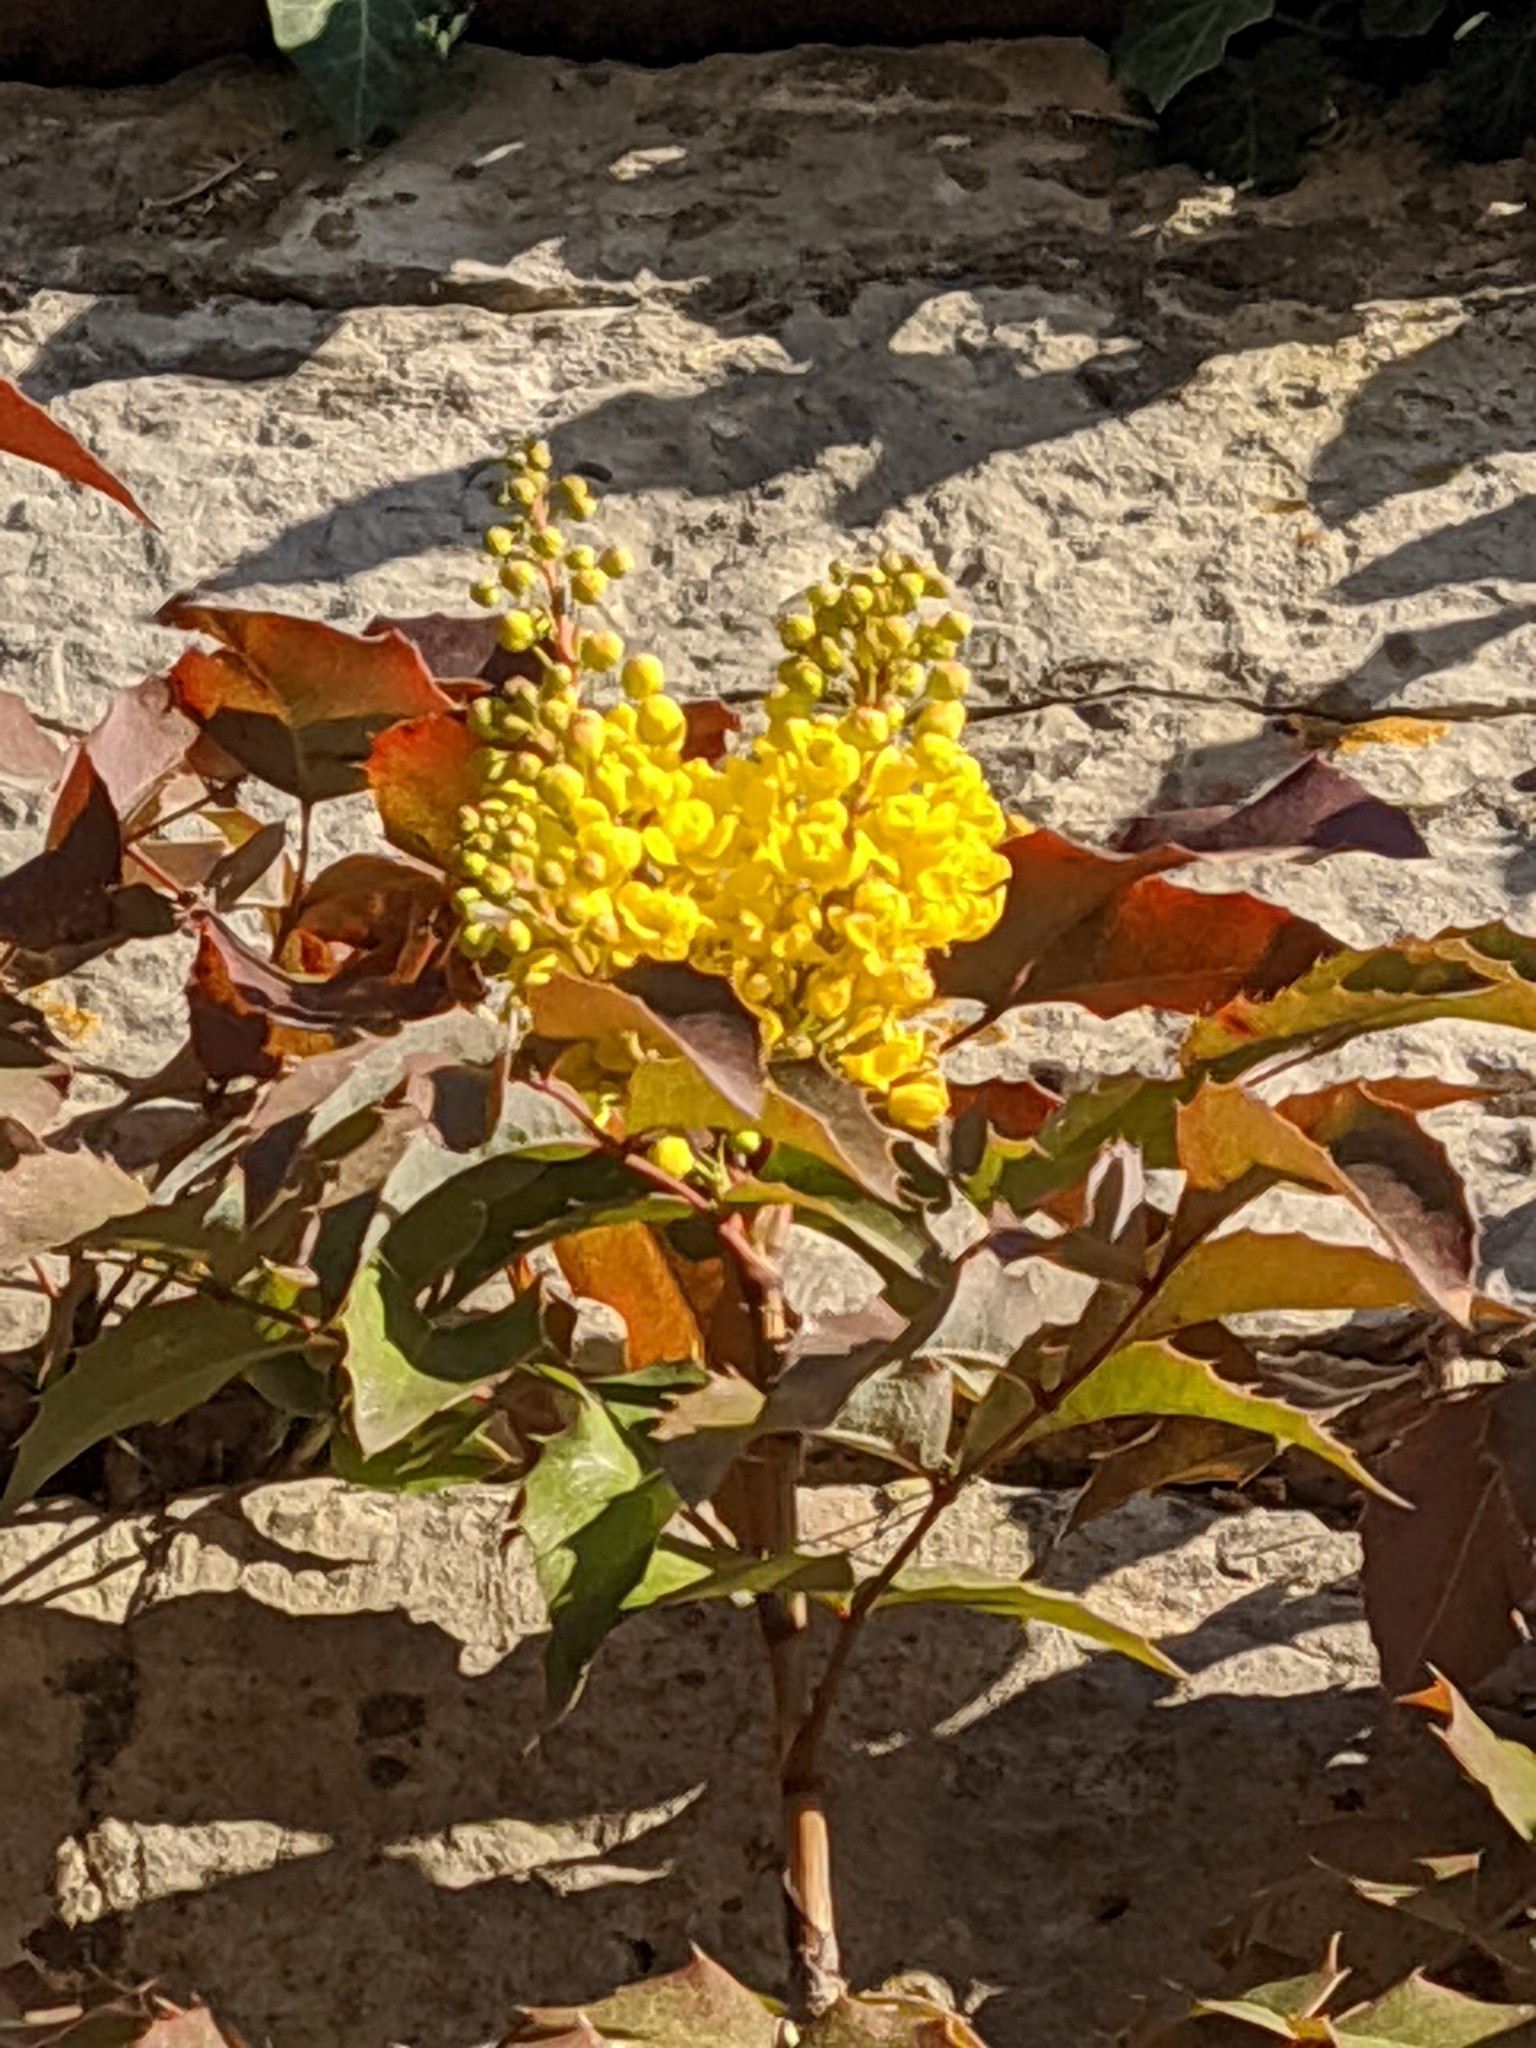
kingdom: Plantae
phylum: Tracheophyta
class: Magnoliopsida
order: Ranunculales
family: Berberidaceae
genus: Mahonia
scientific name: Mahonia aquifolium
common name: Oregon-grape
